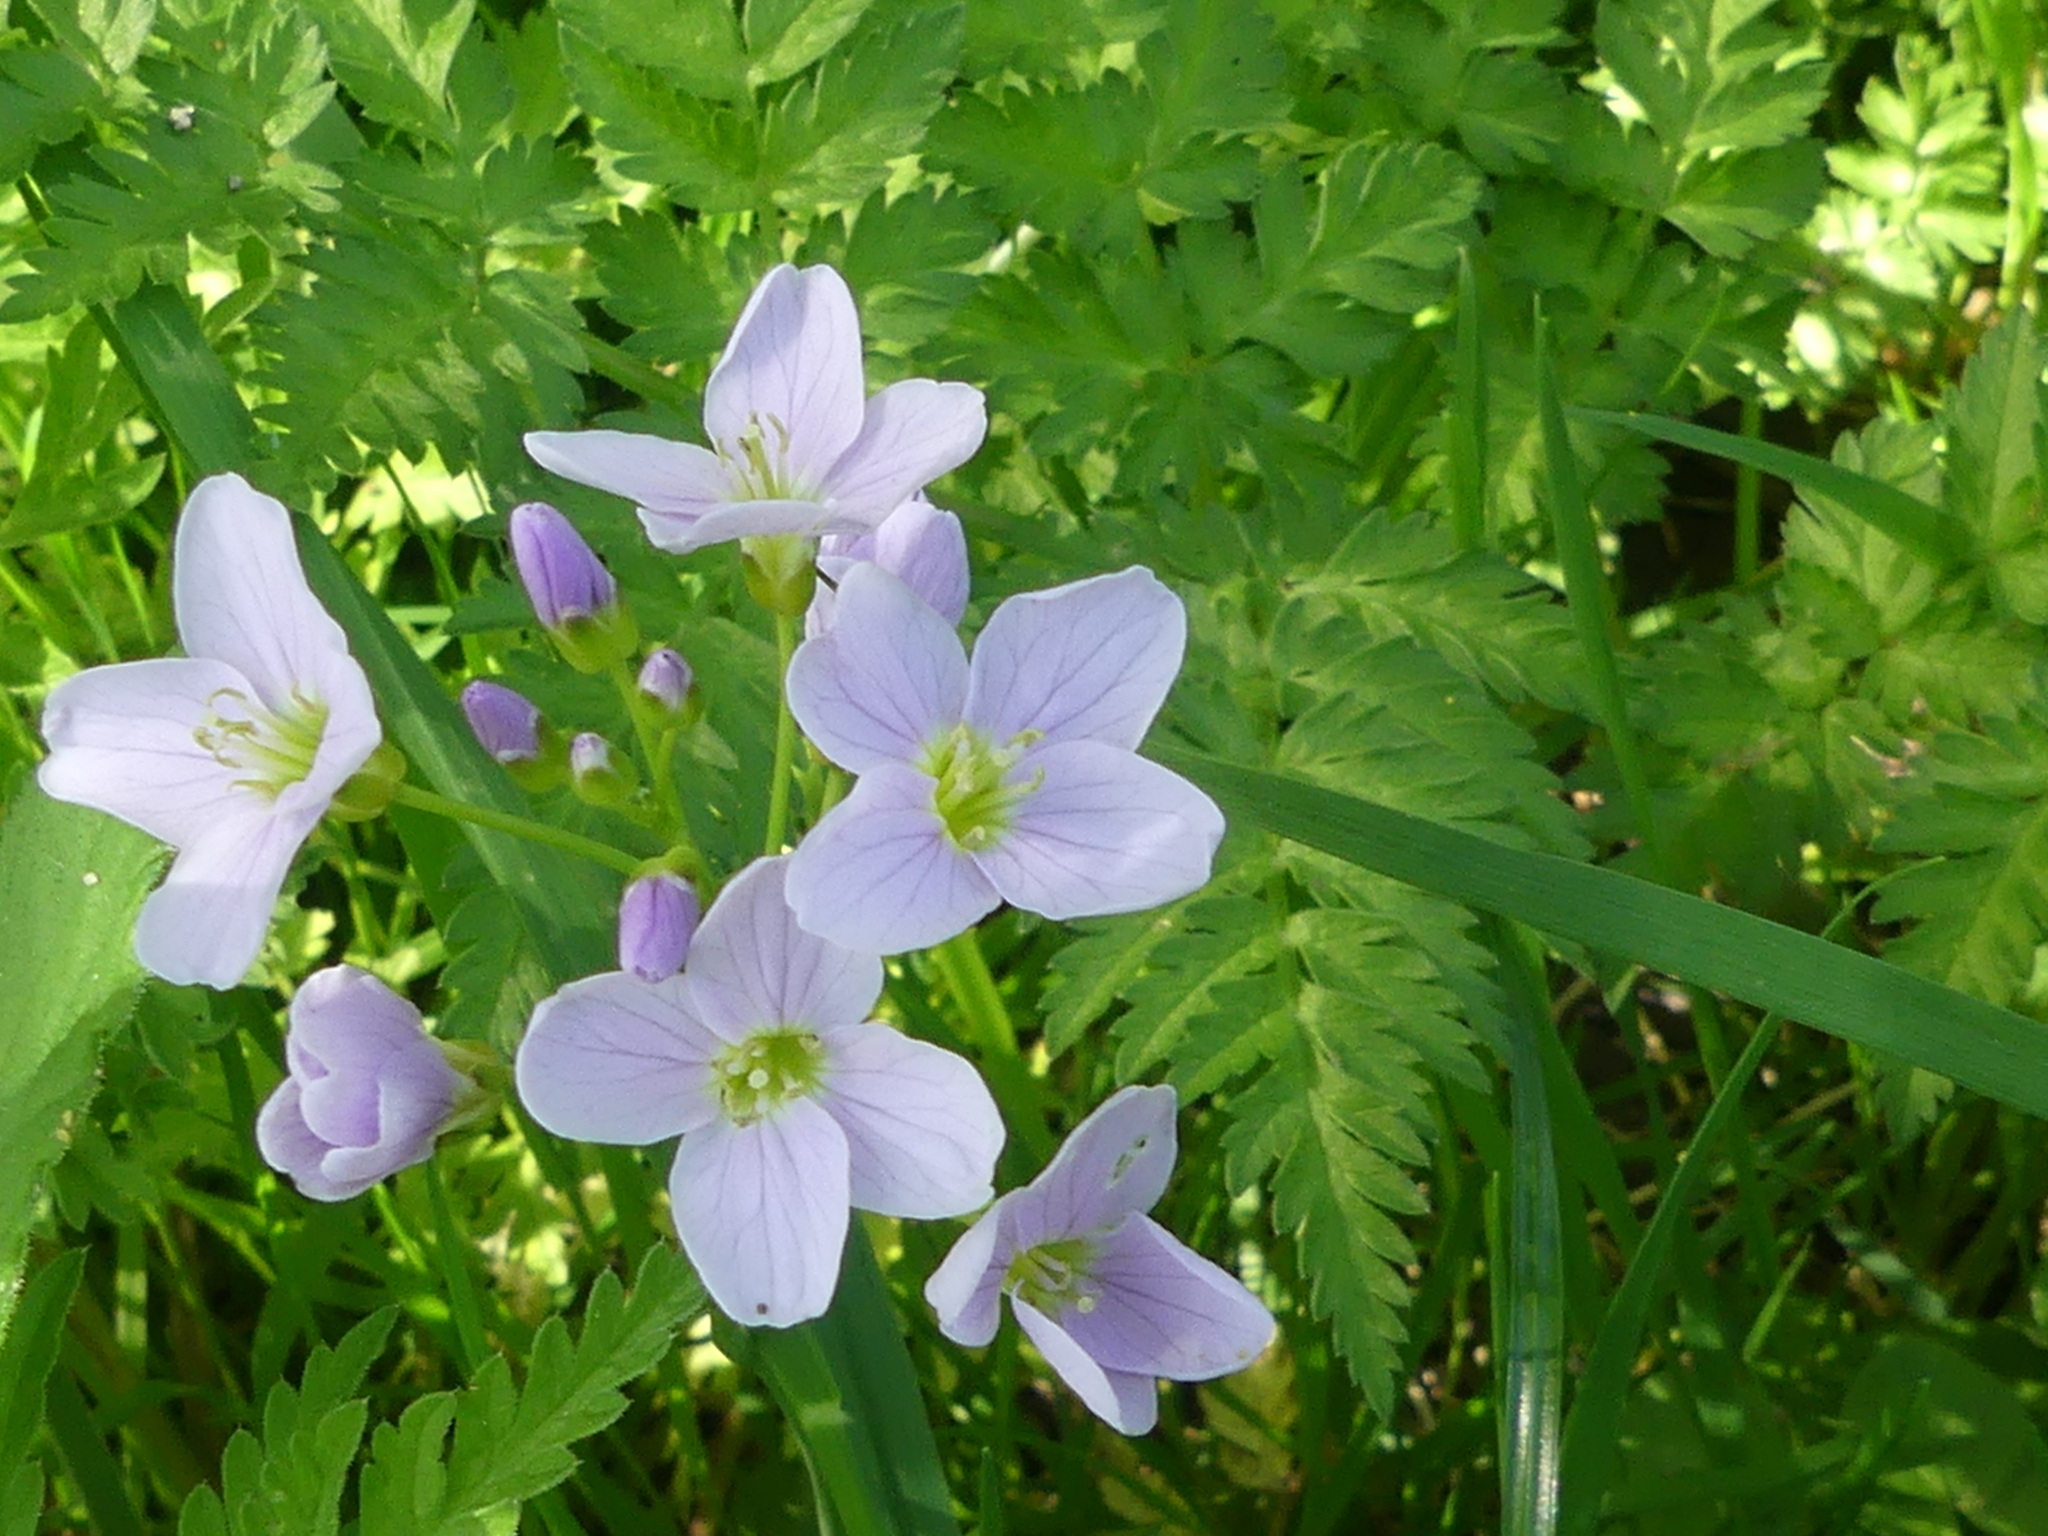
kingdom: Plantae
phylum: Tracheophyta
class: Magnoliopsida
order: Brassicales
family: Brassicaceae
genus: Cardamine
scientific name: Cardamine pratensis
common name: Cuckoo flower
